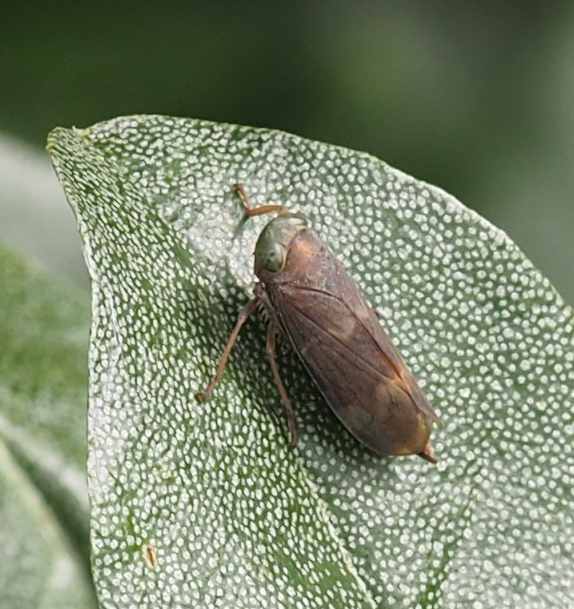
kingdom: Animalia
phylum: Arthropoda
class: Insecta
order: Hemiptera
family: Cicadellidae
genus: Jikradia
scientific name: Jikradia olitoria
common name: Coppery leafhopper
